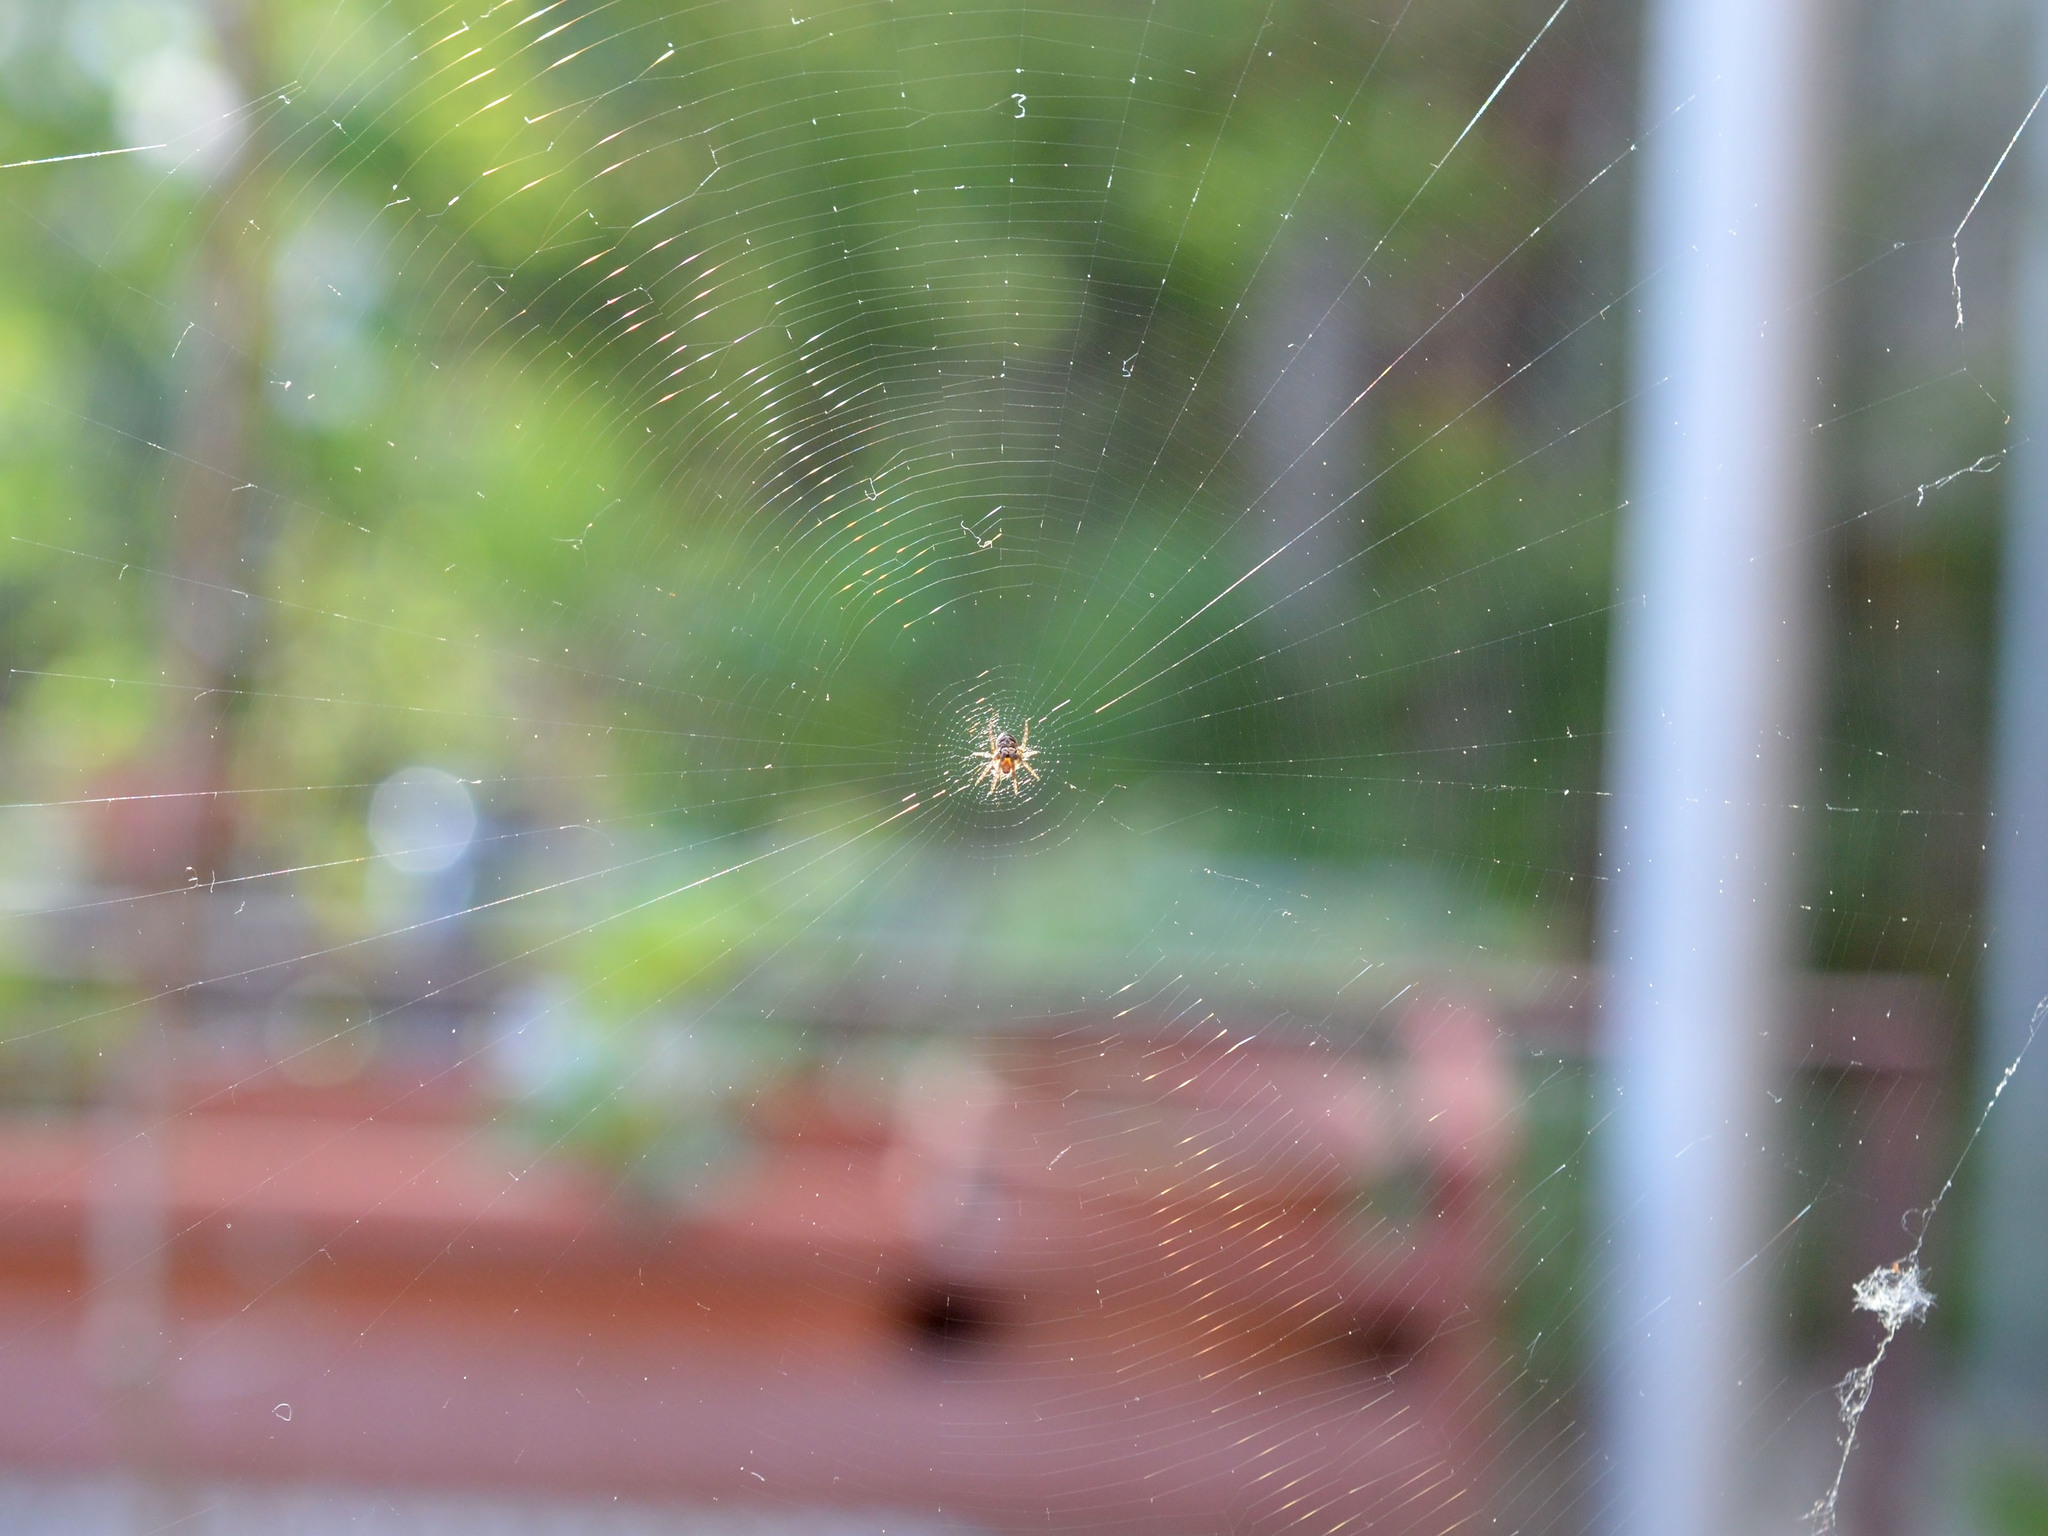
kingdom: Animalia
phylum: Arthropoda
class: Arachnida
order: Araneae
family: Araneidae
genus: Zilla
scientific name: Zilla diodia
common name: Zilla diodia
